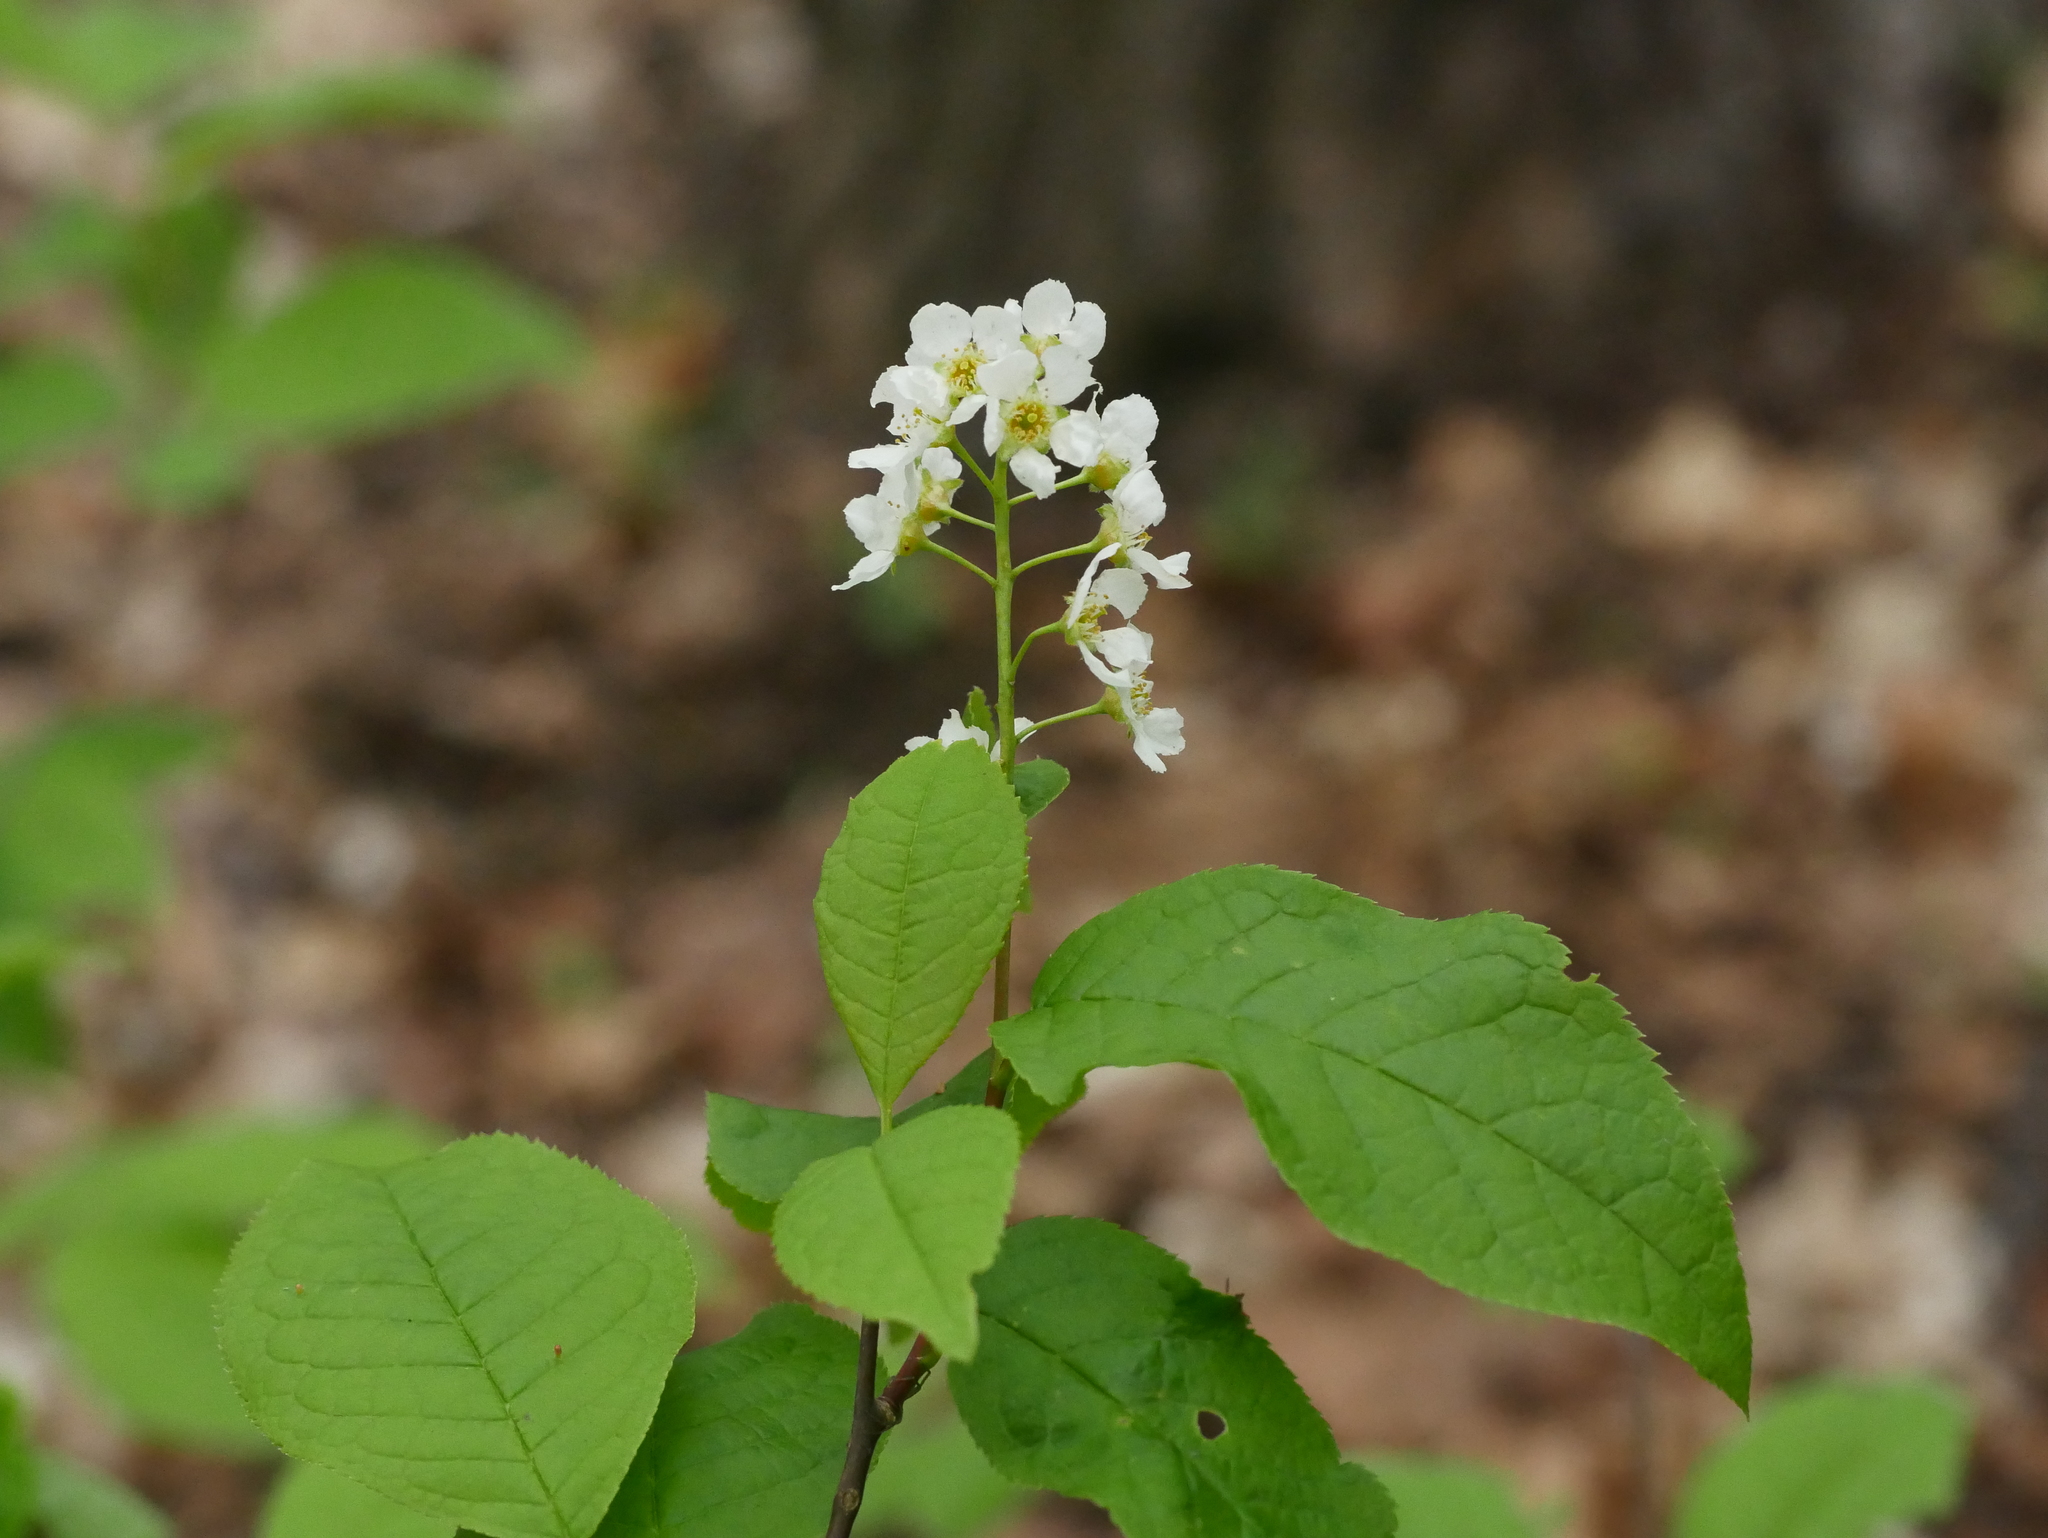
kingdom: Plantae
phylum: Tracheophyta
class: Magnoliopsida
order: Rosales
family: Rosaceae
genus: Prunus
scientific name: Prunus padus
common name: Bird cherry
